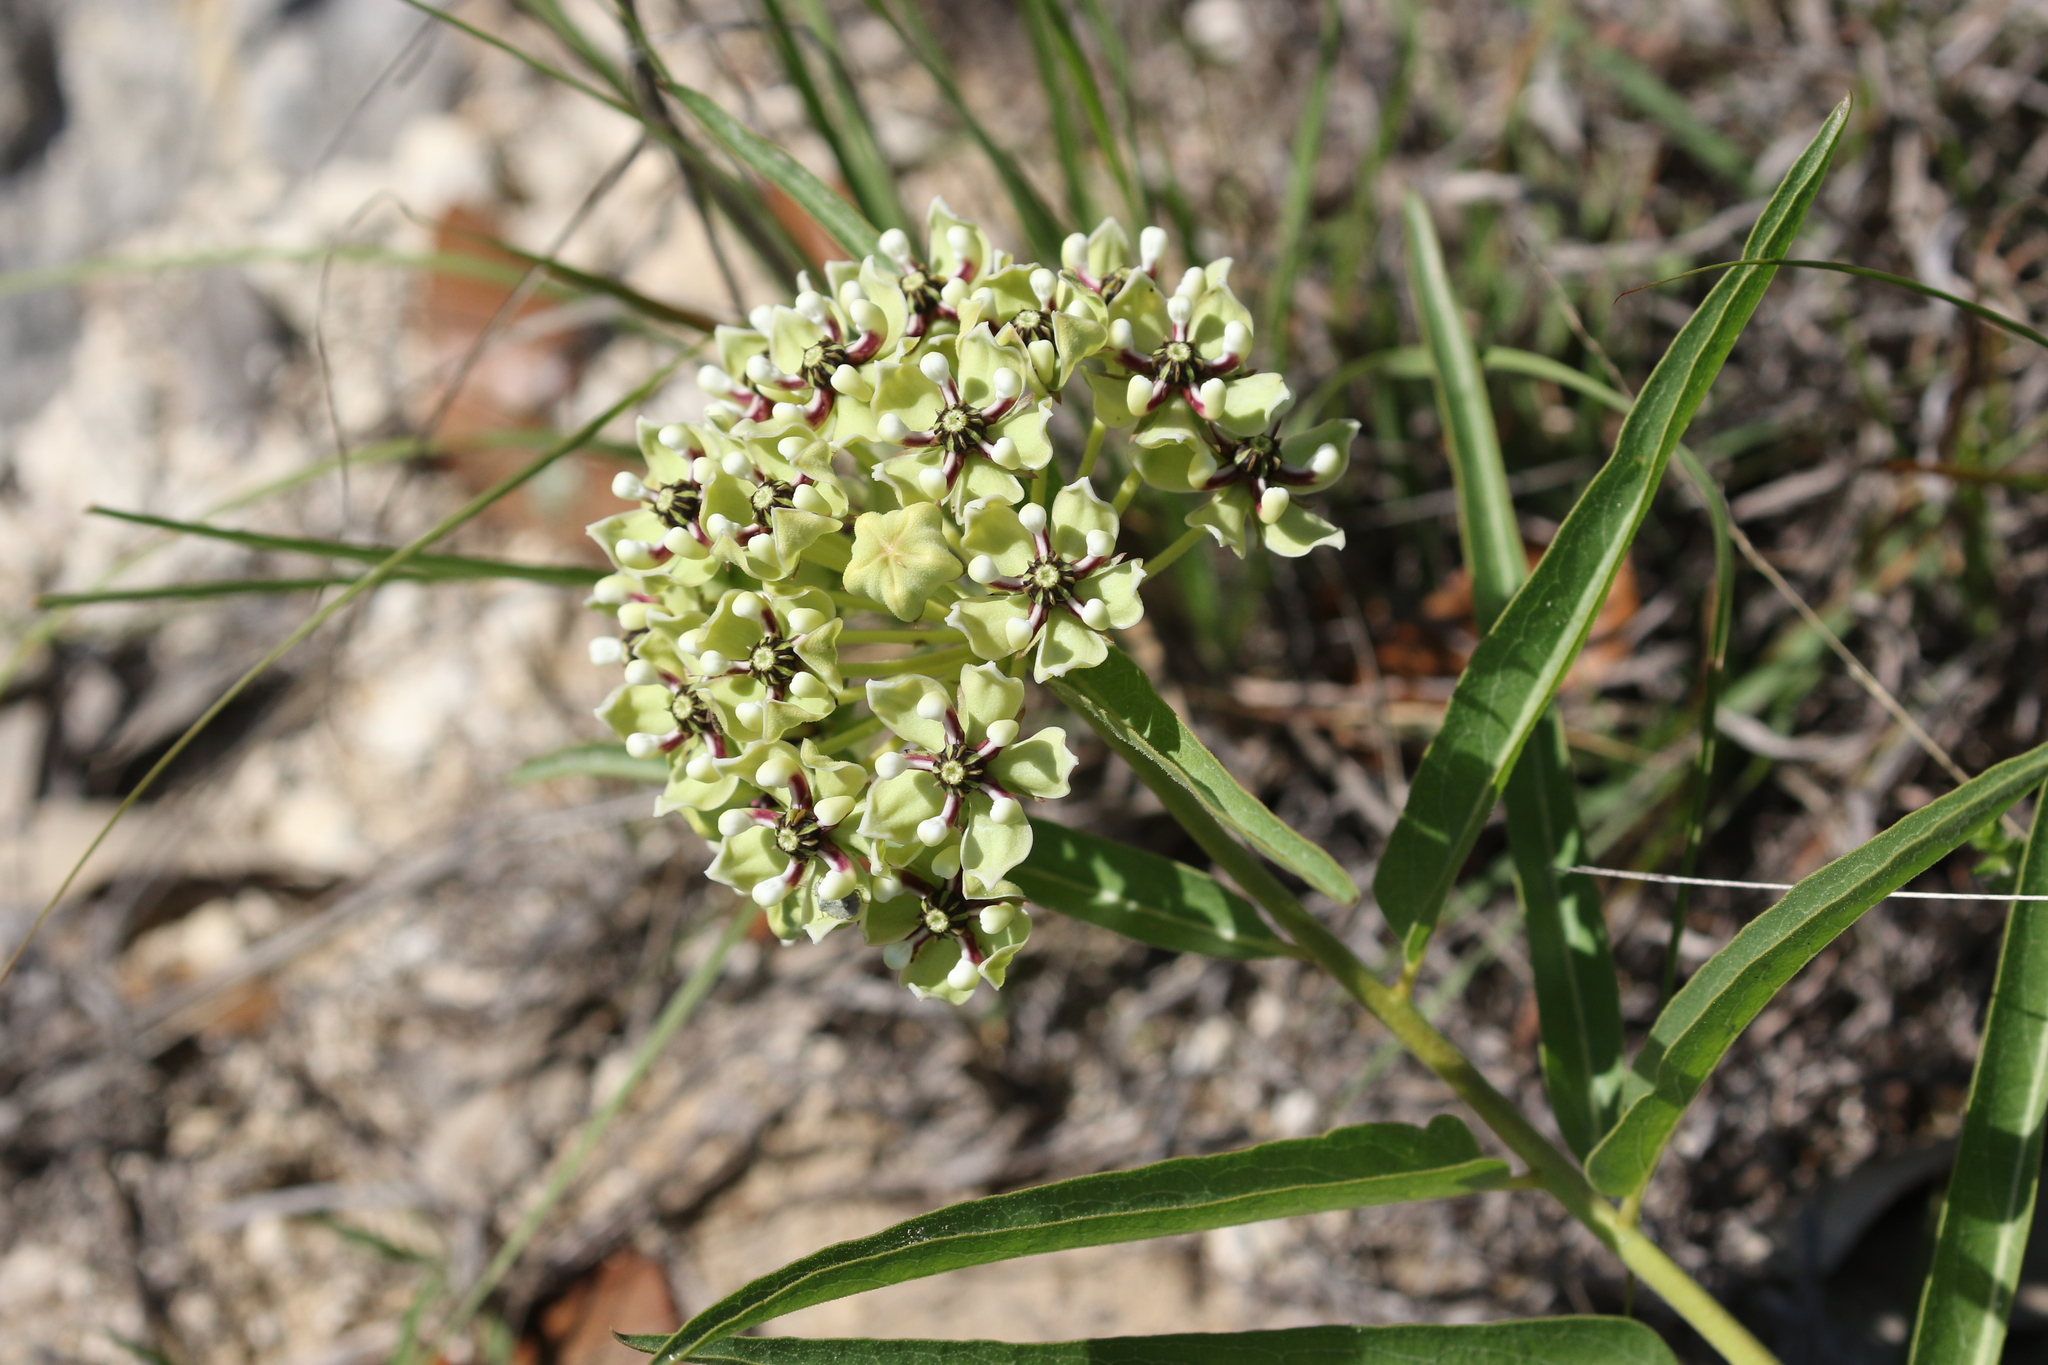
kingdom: Plantae
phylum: Tracheophyta
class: Magnoliopsida
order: Gentianales
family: Apocynaceae
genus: Asclepias
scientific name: Asclepias asperula
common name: Antelope horns
